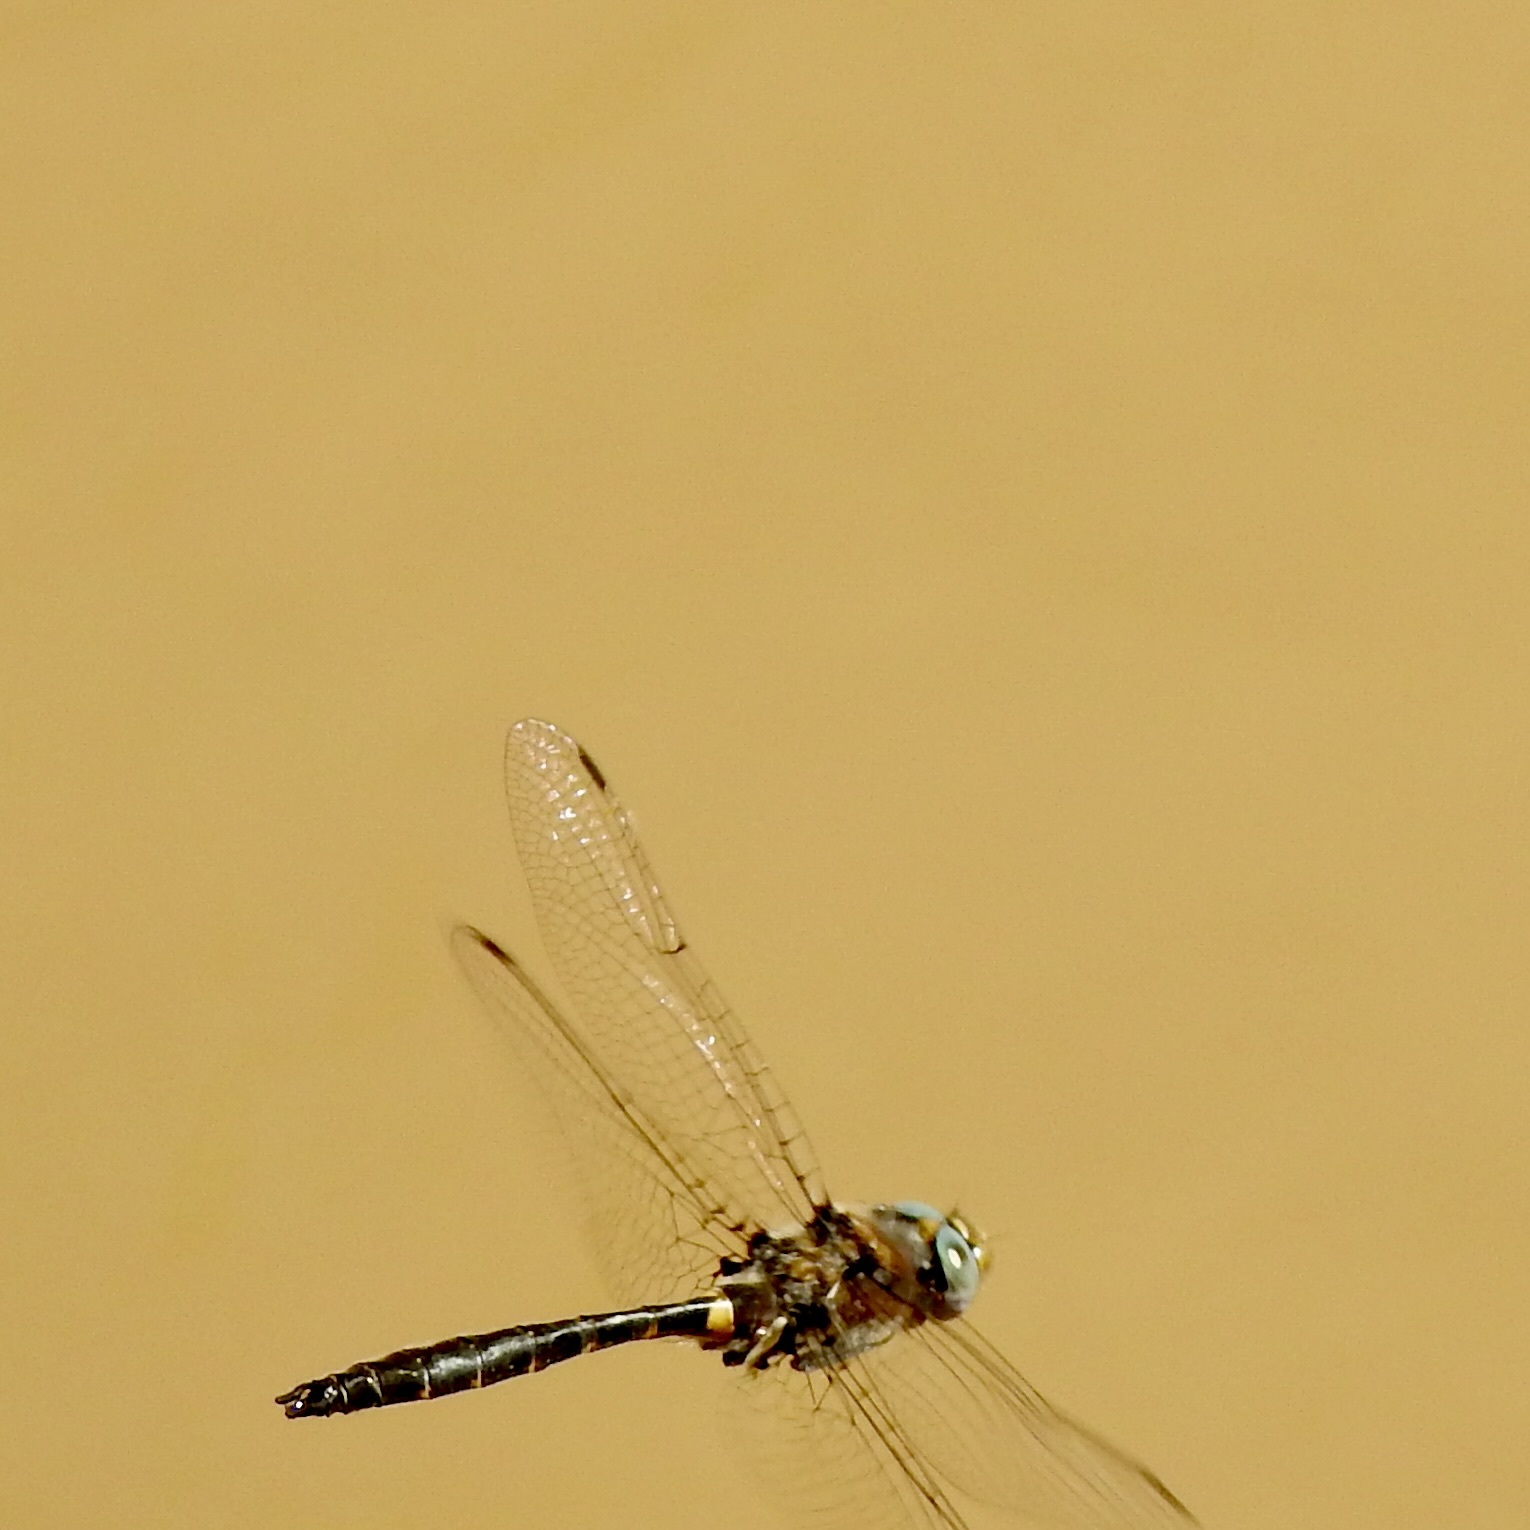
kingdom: Animalia
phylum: Arthropoda
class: Insecta
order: Odonata
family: Corduliidae
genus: Helocordulia
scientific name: Helocordulia selysii
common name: Selys's sundragon
